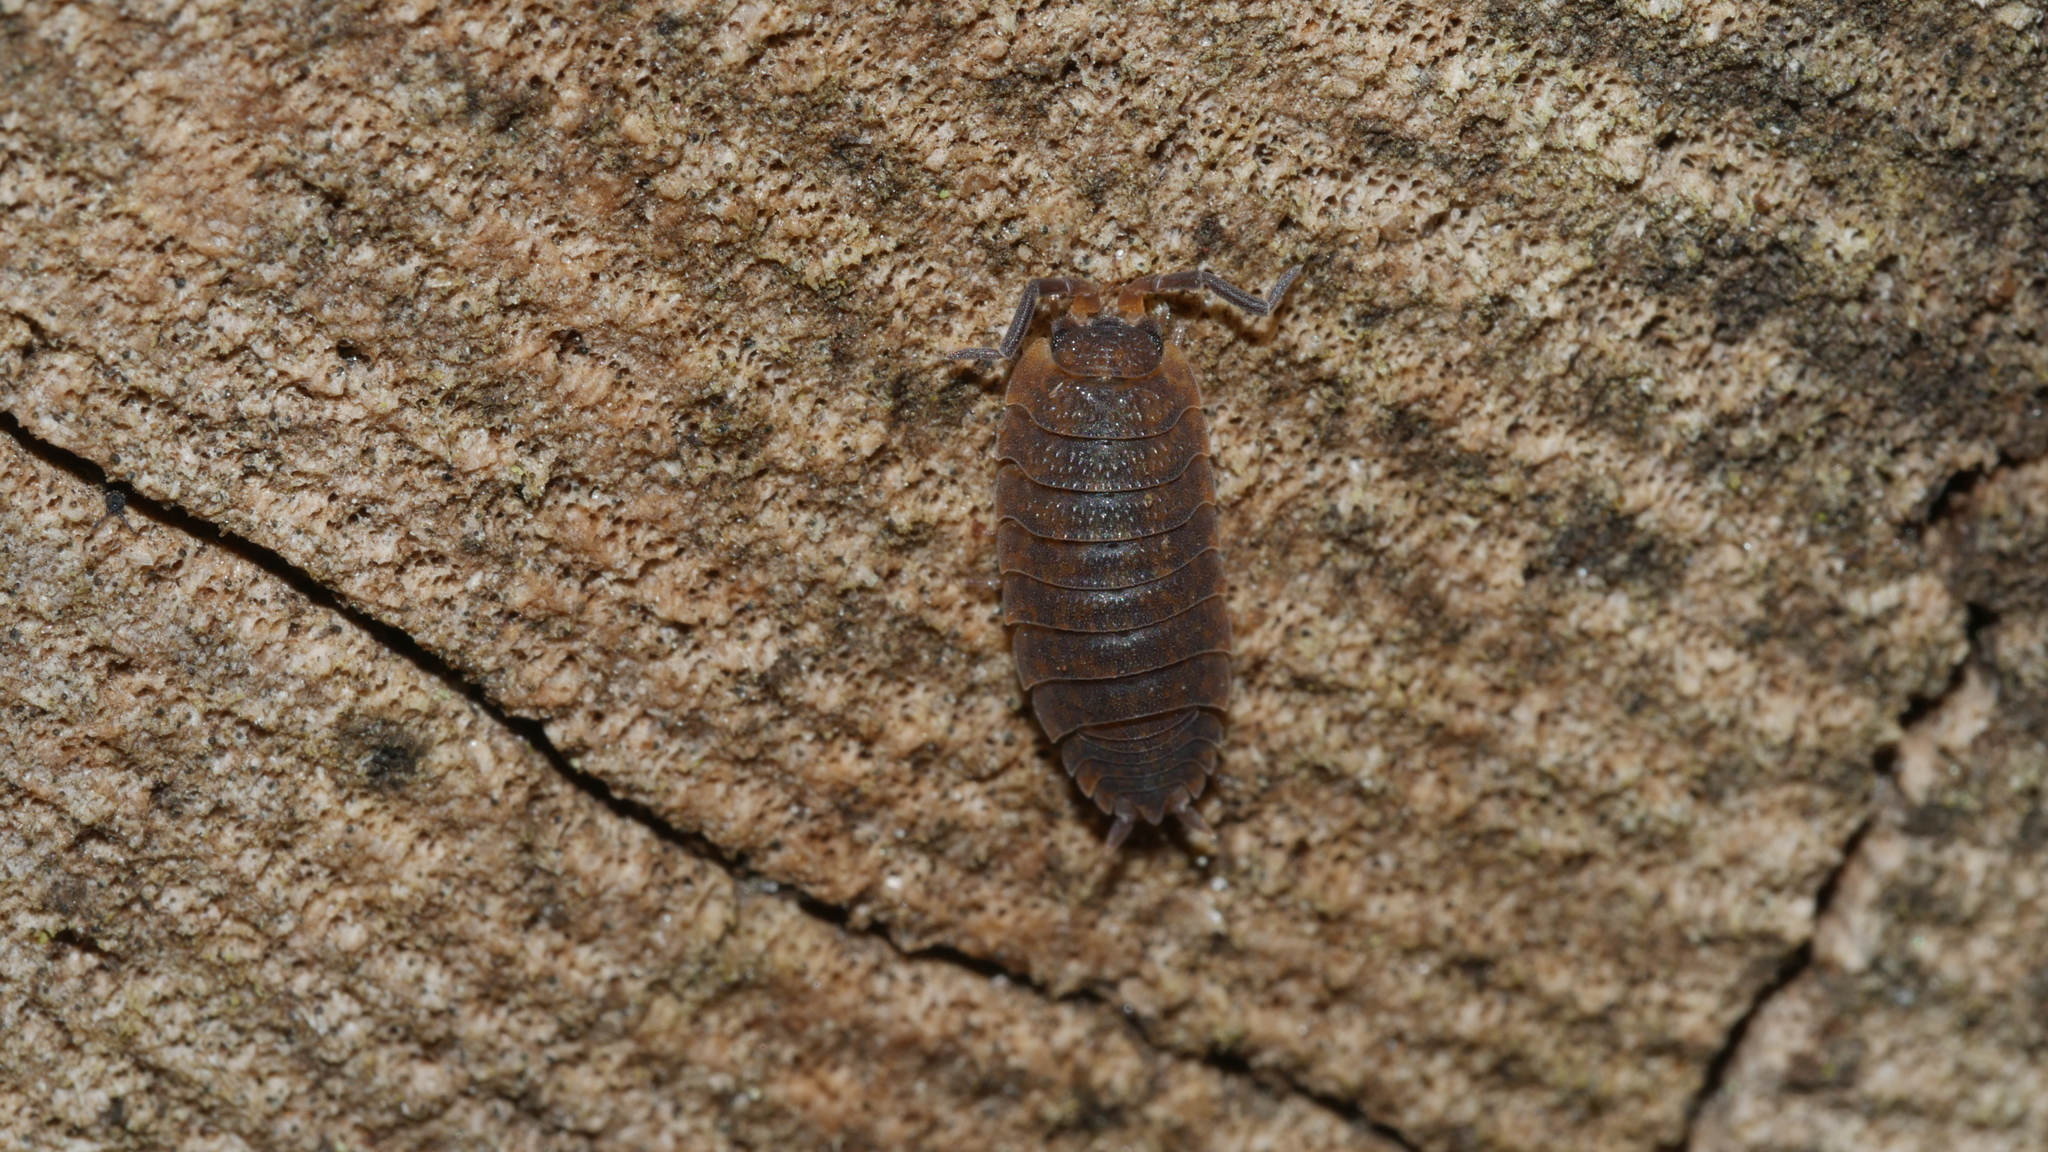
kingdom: Animalia
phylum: Arthropoda
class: Malacostraca
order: Isopoda
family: Porcellionidae
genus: Porcellio
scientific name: Porcellio scaber
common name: Common rough woodlouse
